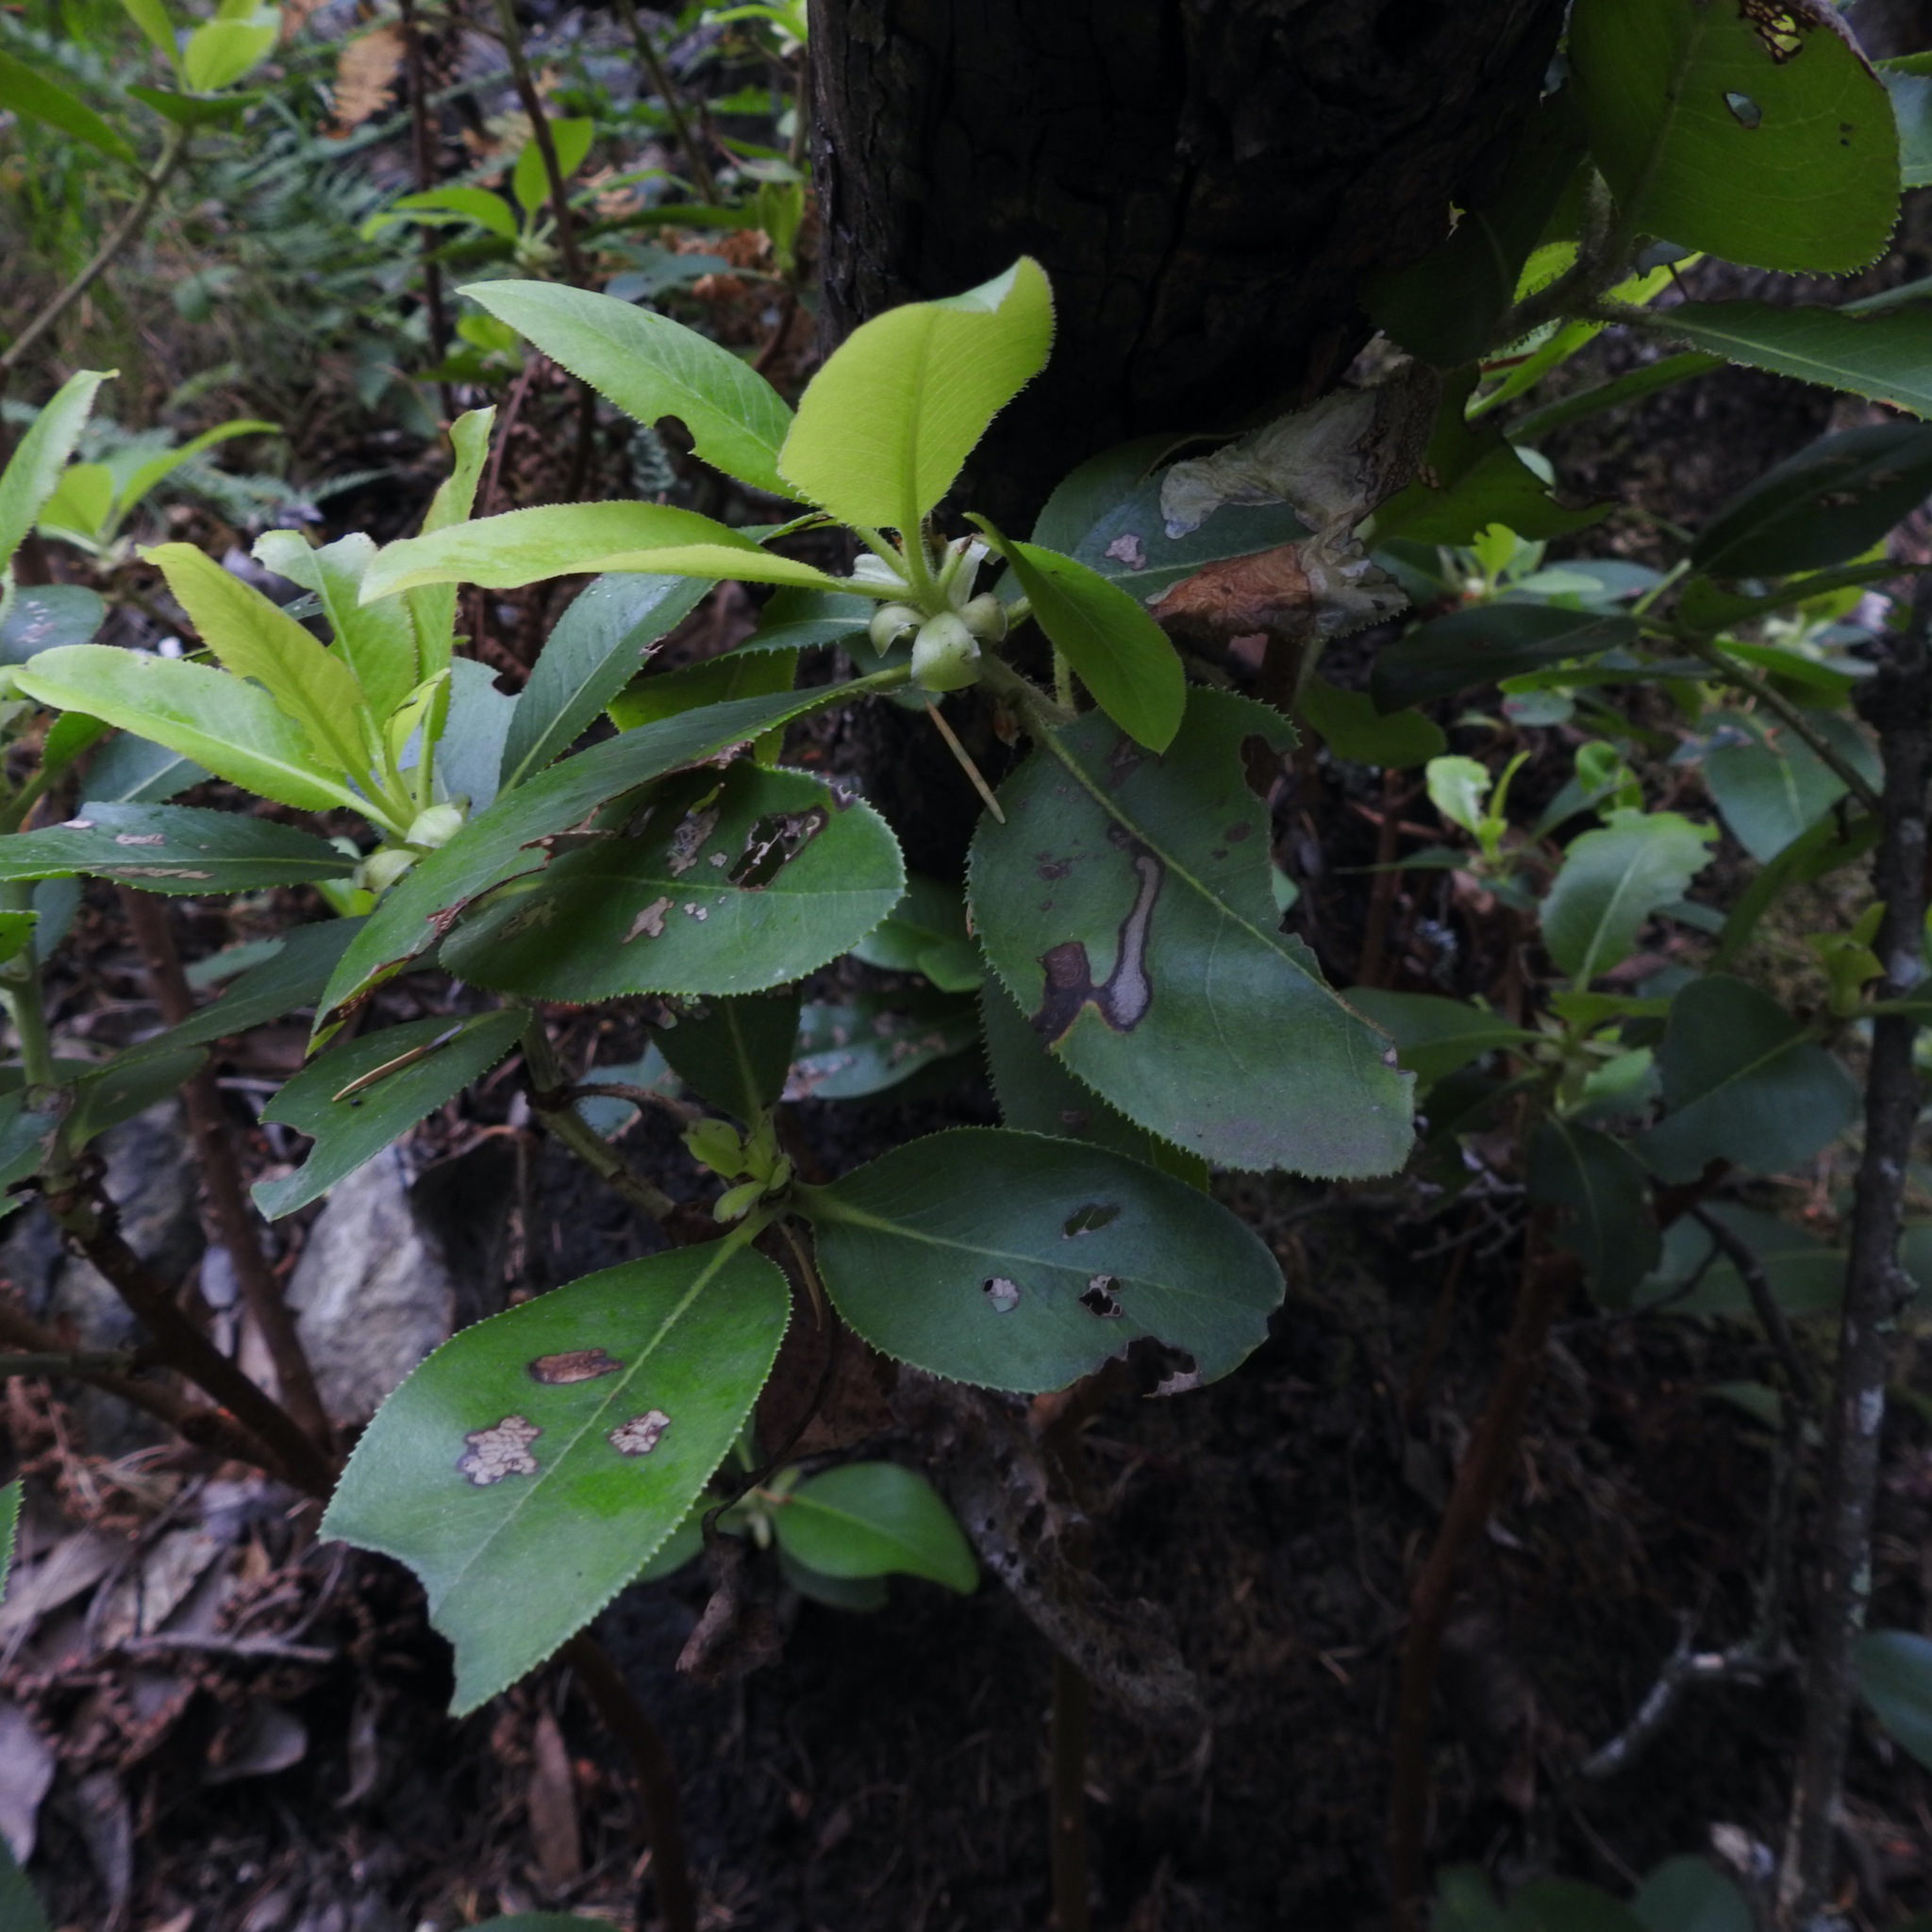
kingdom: Plantae
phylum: Tracheophyta
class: Magnoliopsida
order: Ericales
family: Ericaceae
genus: Arbutus
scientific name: Arbutus menziesii
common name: Pacific madrone
